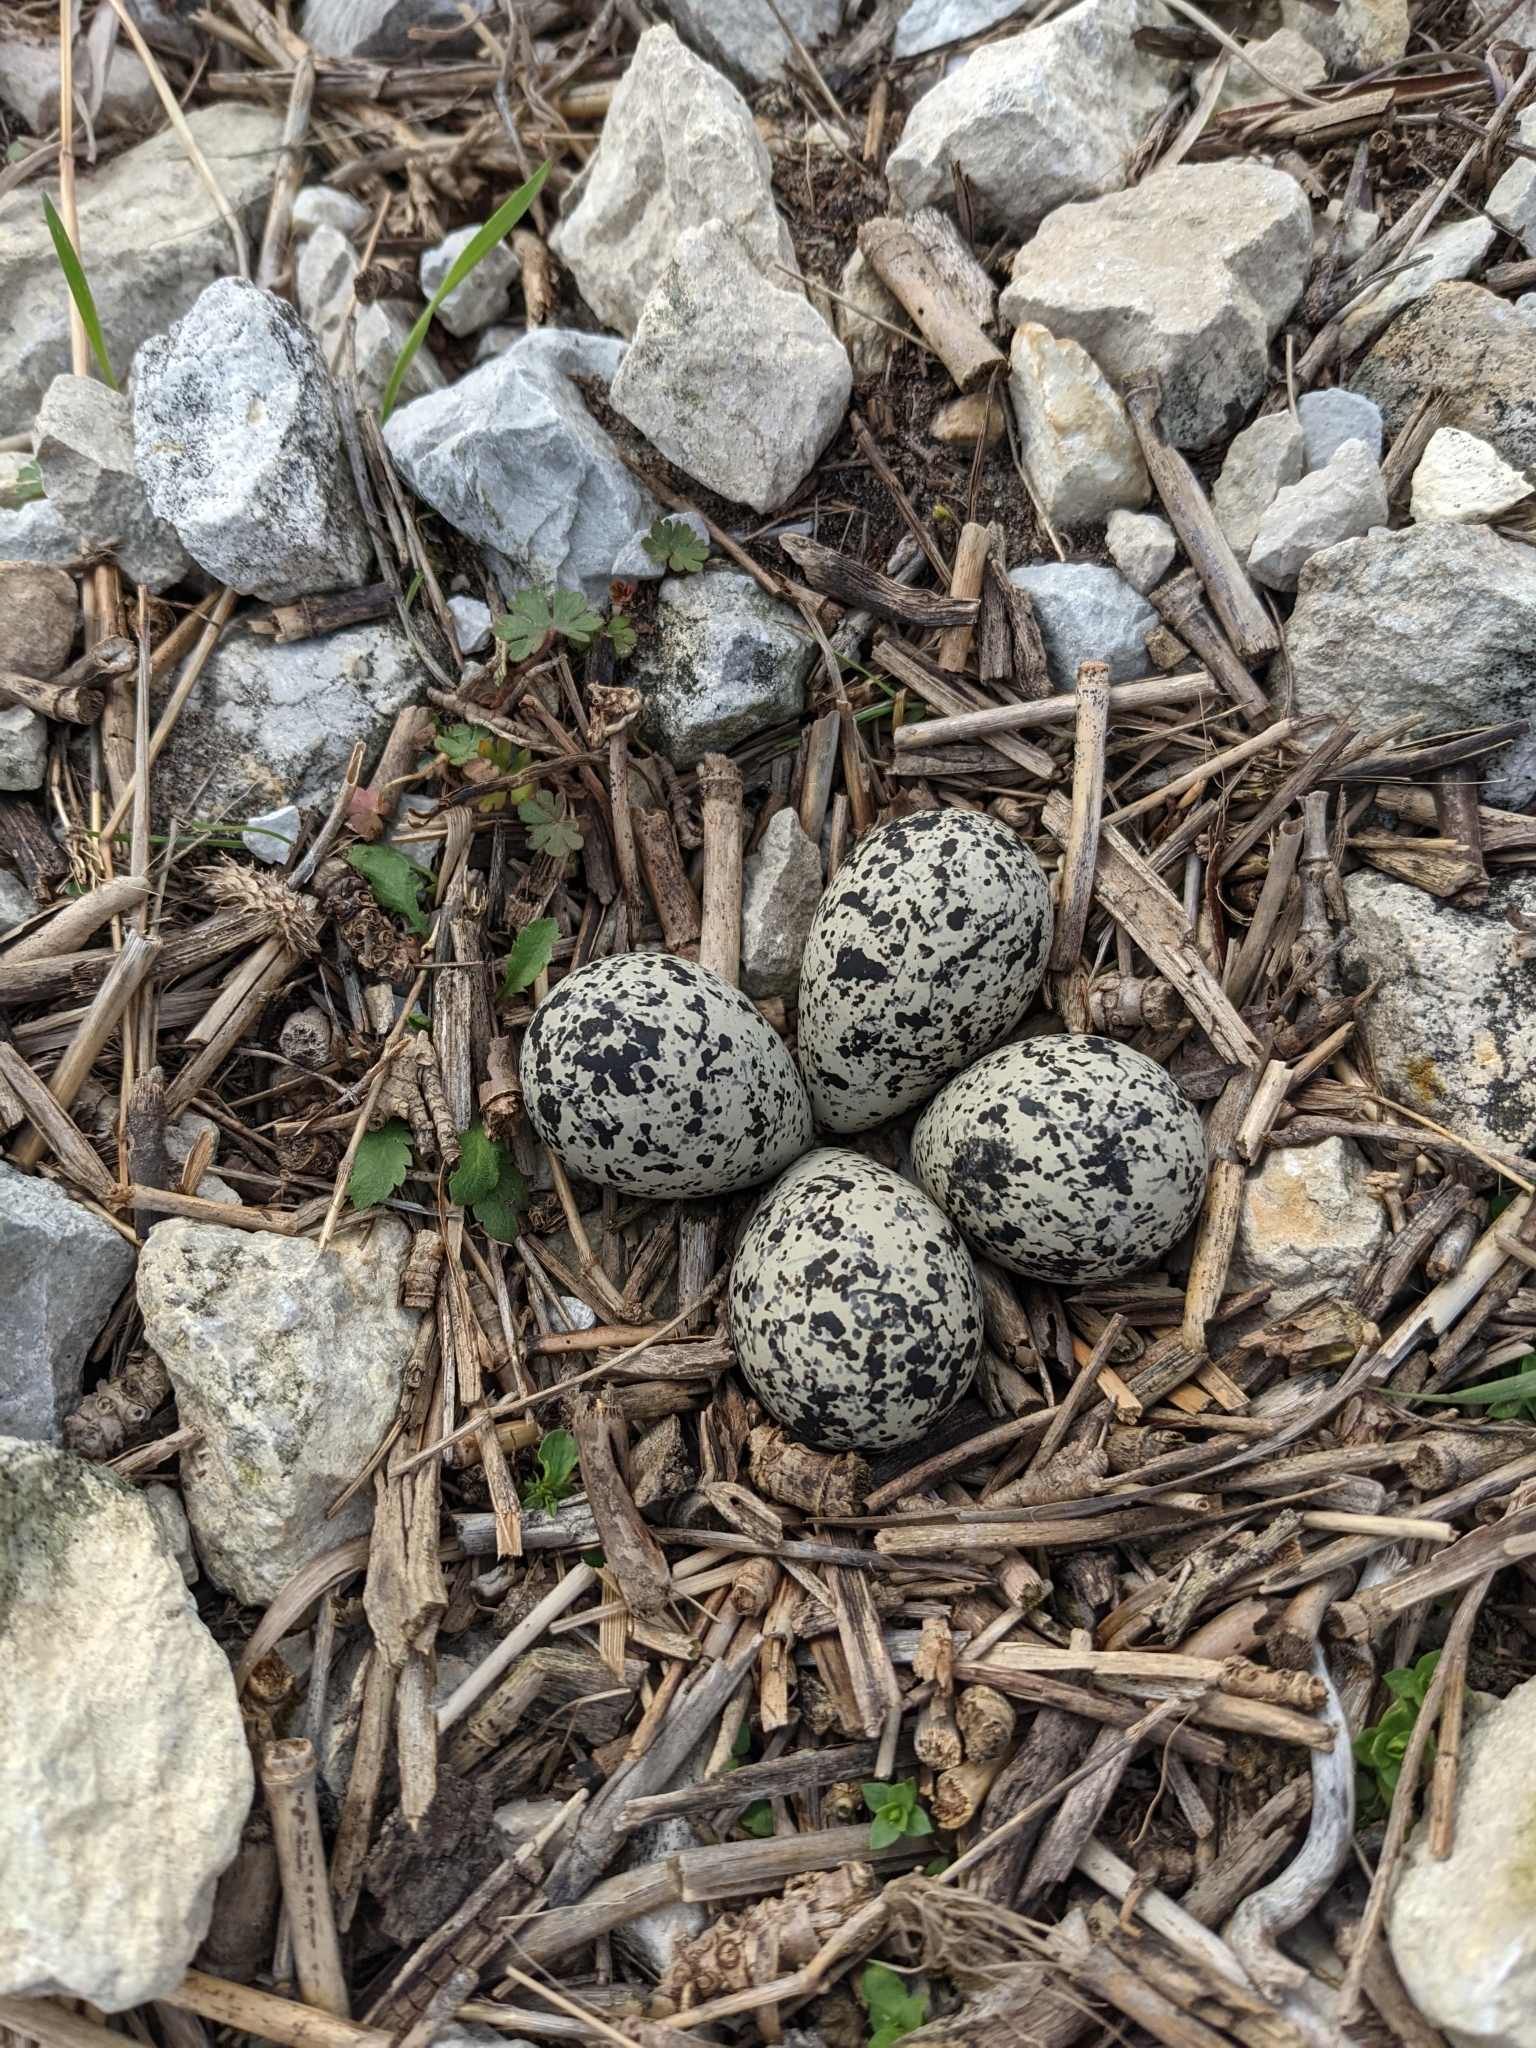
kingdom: Animalia
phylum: Chordata
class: Aves
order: Charadriiformes
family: Charadriidae
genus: Charadrius
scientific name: Charadrius vociferus
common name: Killdeer
